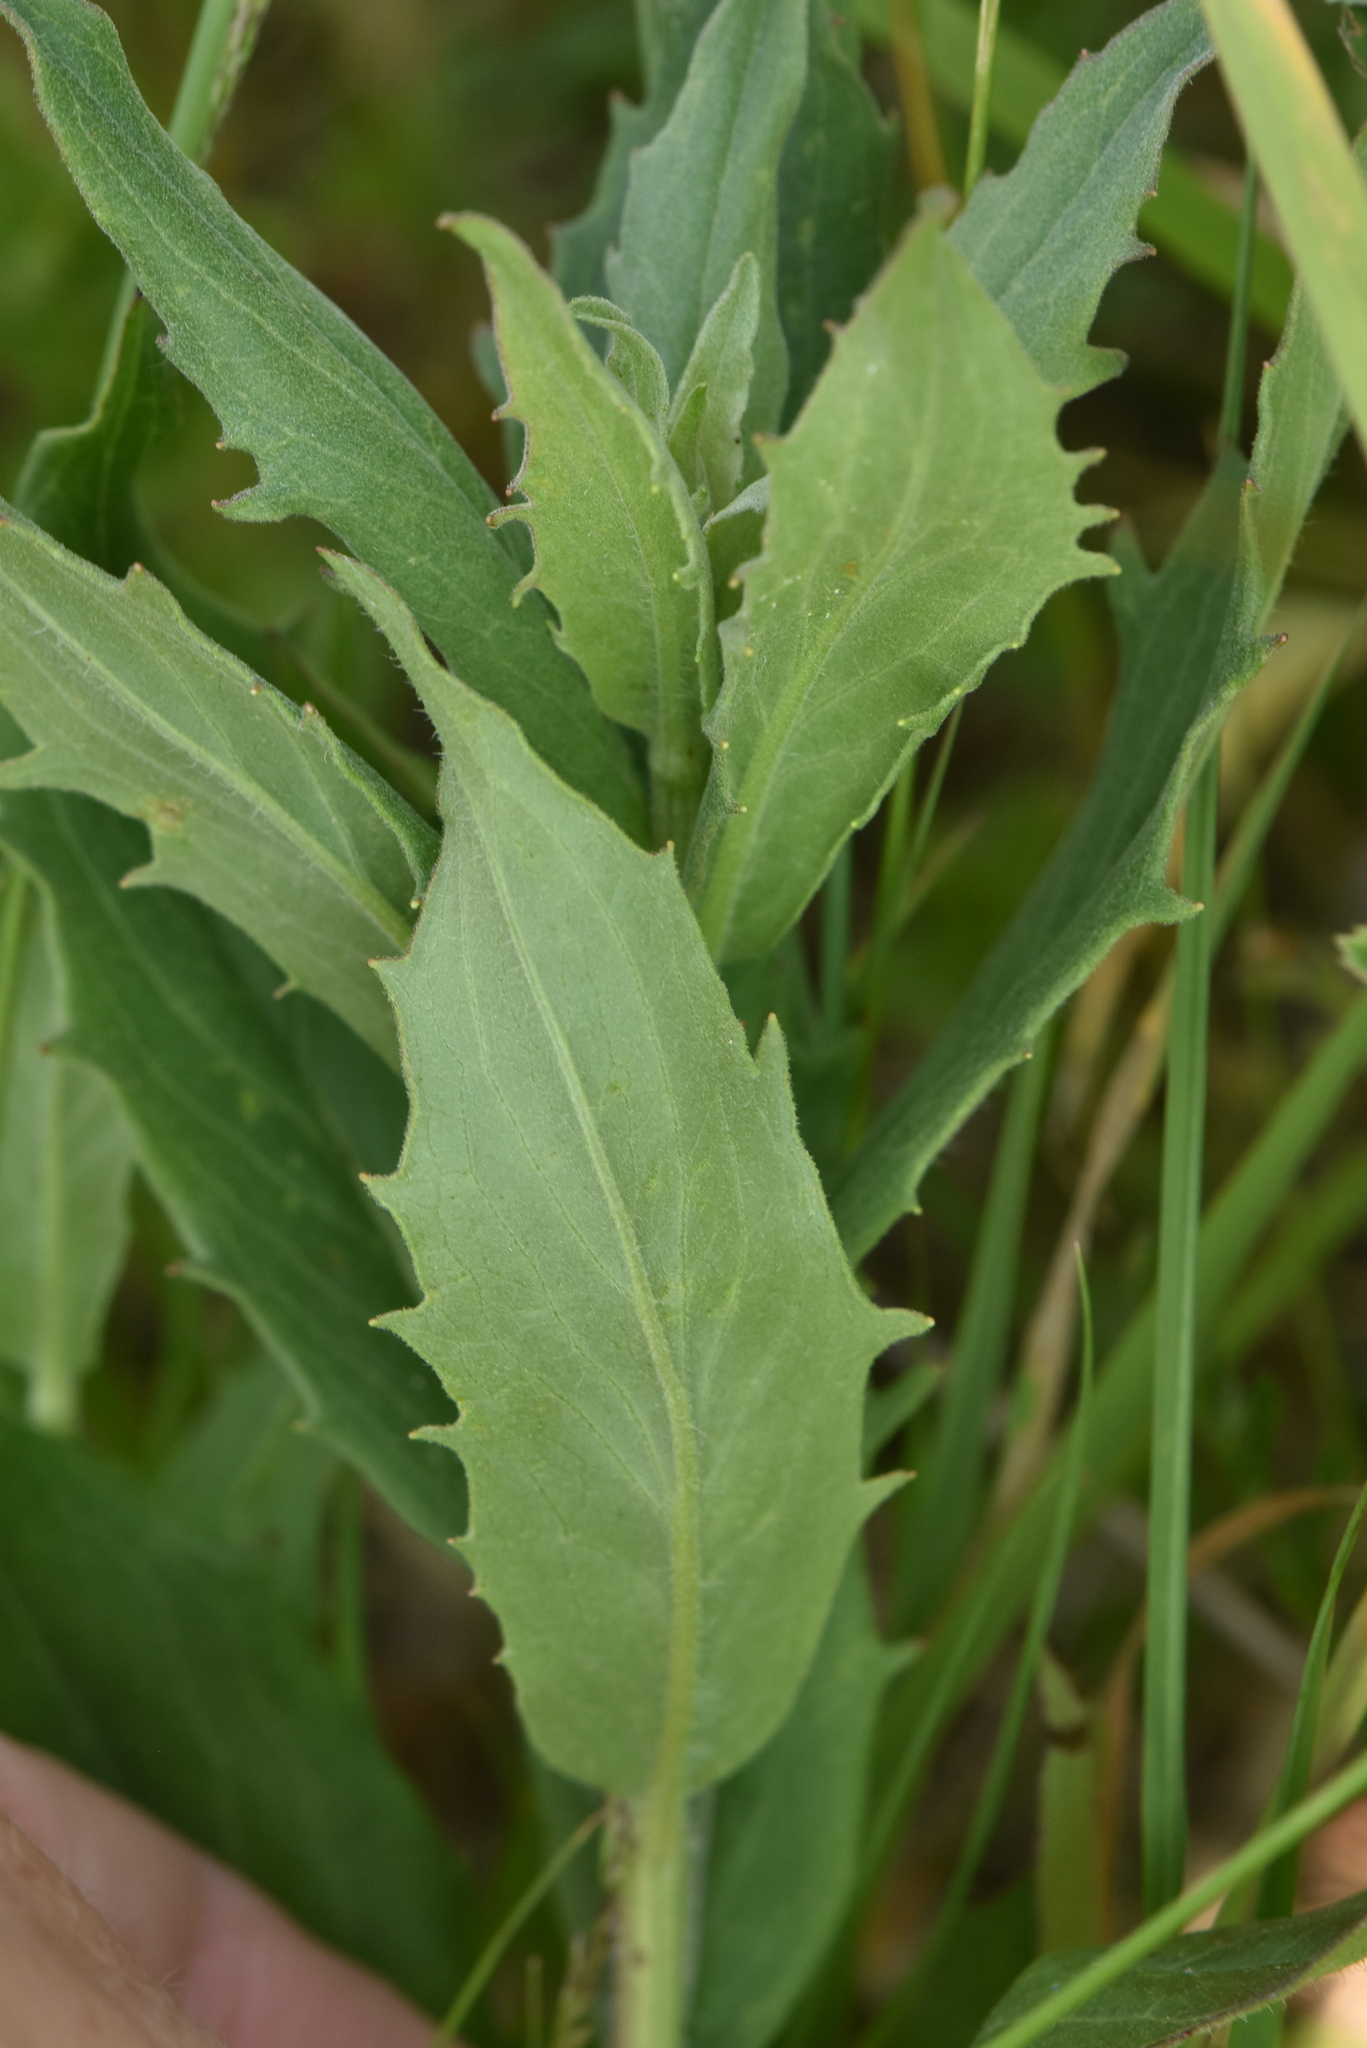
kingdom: Plantae
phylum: Tracheophyta
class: Magnoliopsida
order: Asterales
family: Asteraceae
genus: Hieracium
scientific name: Hieracium umbellatum
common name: Northern hawkweed
